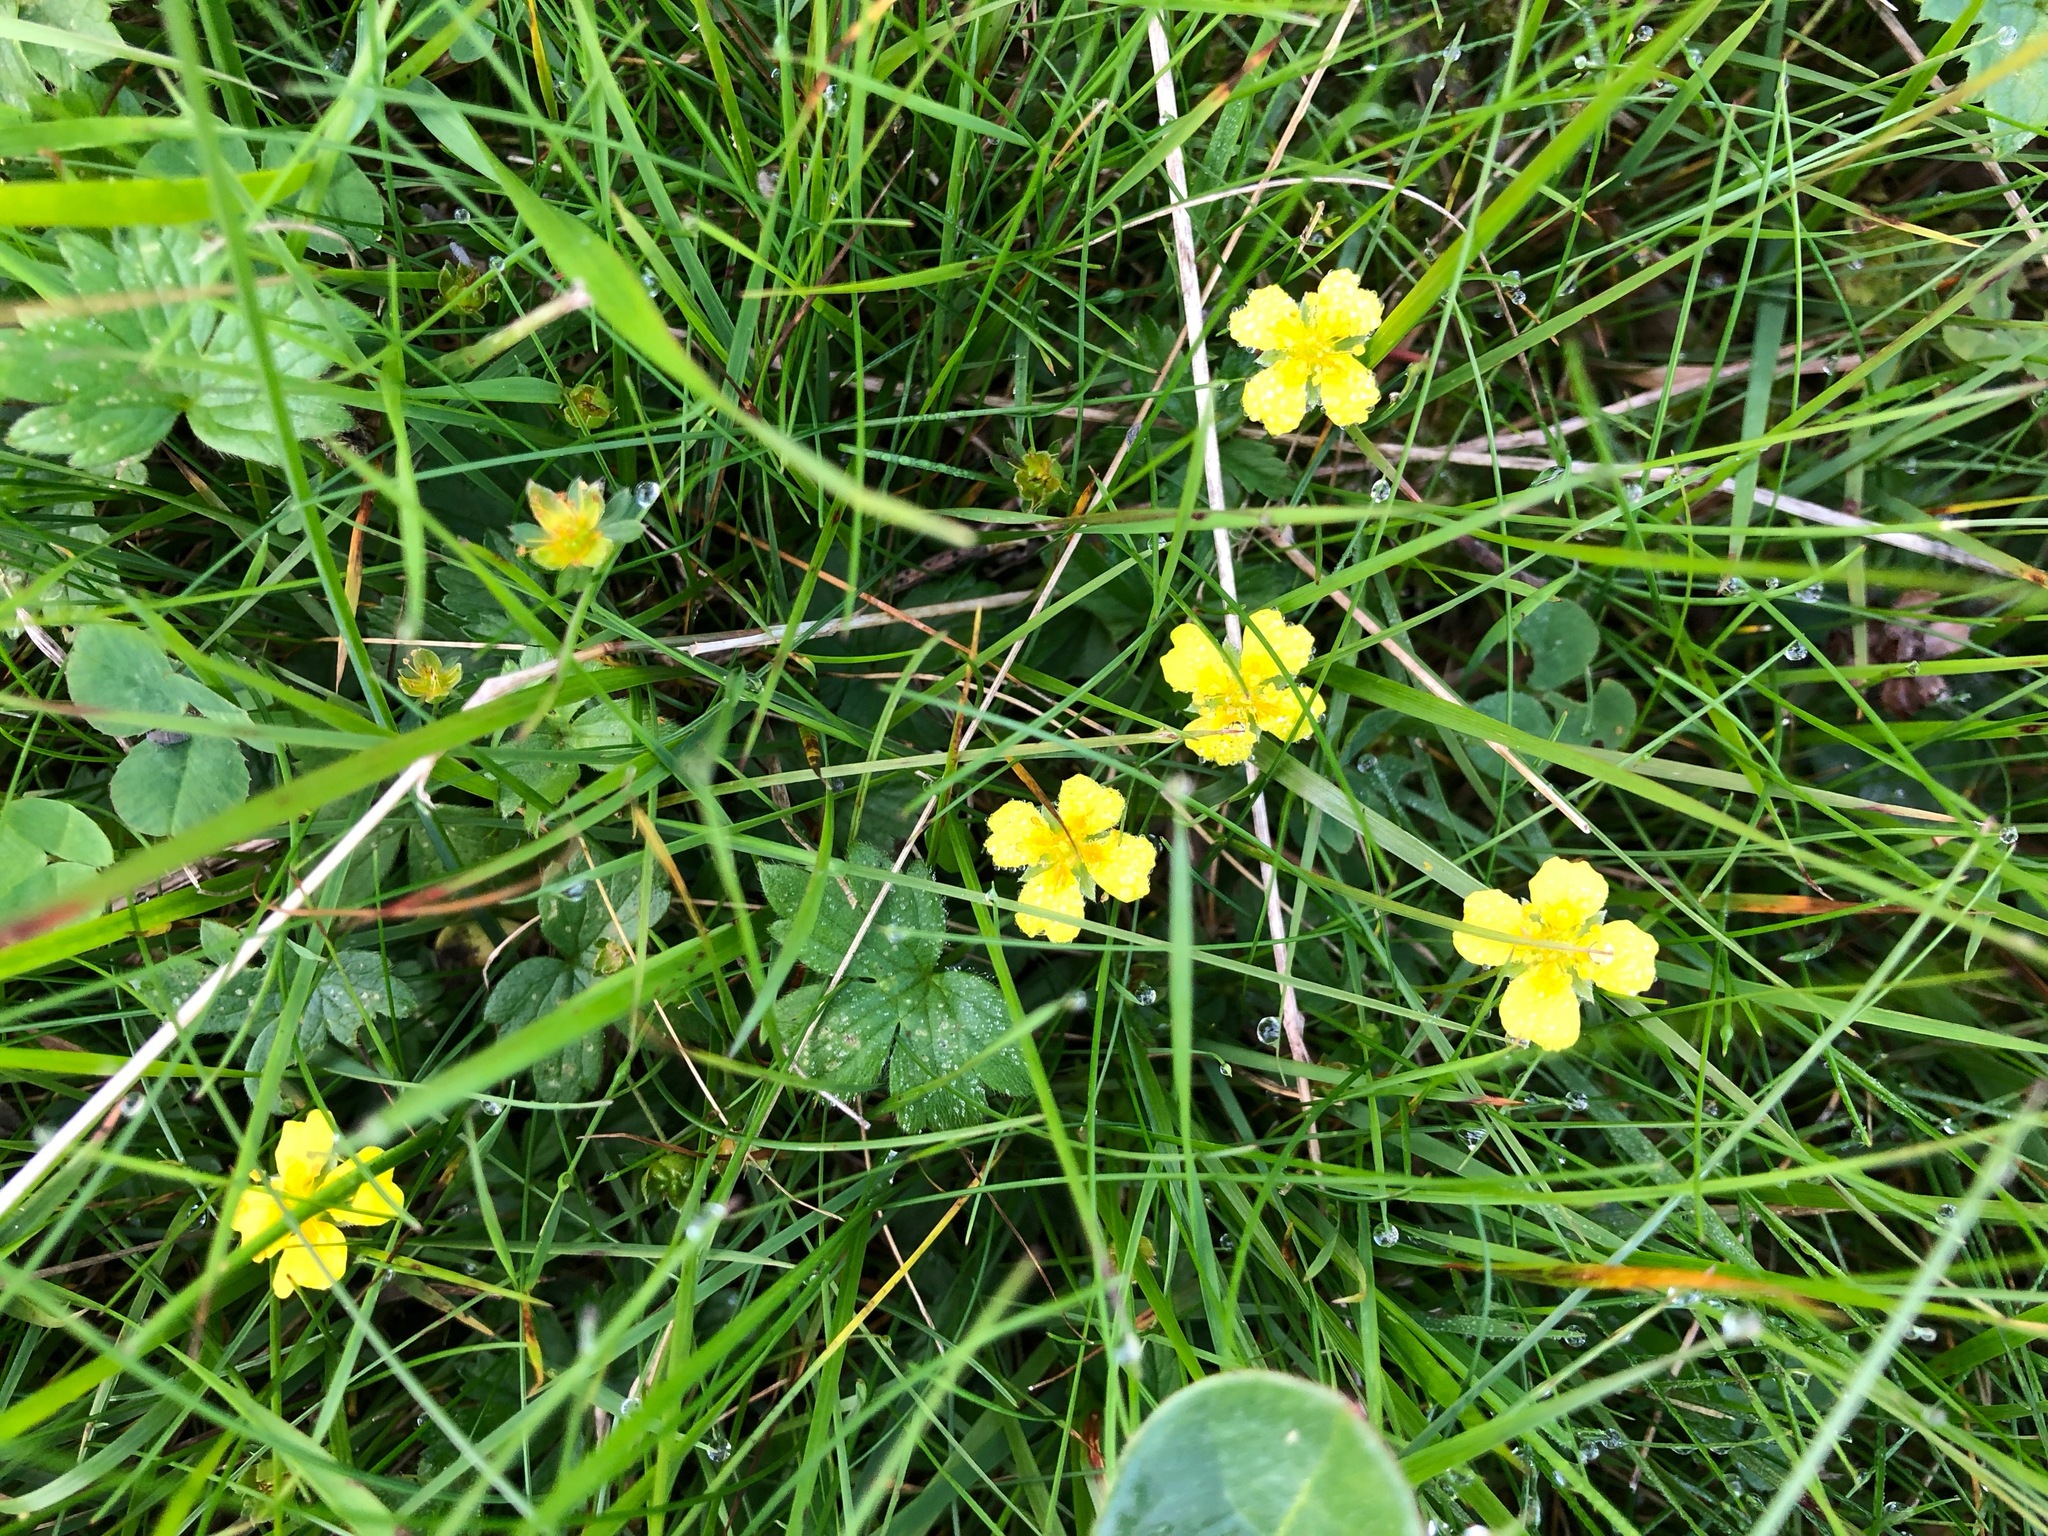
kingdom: Plantae
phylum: Tracheophyta
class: Magnoliopsida
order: Rosales
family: Rosaceae
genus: Potentilla
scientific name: Potentilla erecta
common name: Tormentil
